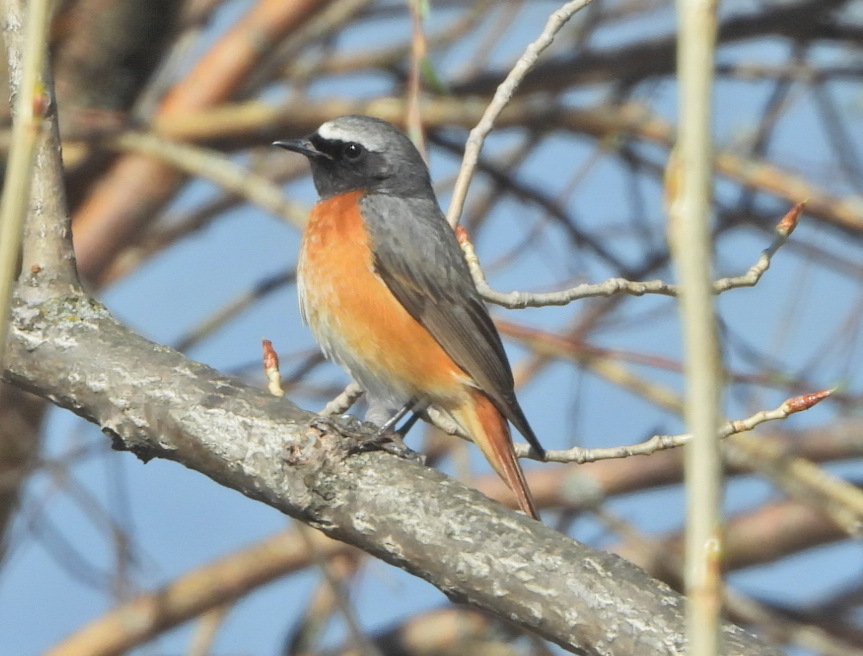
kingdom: Animalia
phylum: Chordata
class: Aves
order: Passeriformes
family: Muscicapidae
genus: Phoenicurus
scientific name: Phoenicurus phoenicurus
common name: Common redstart
